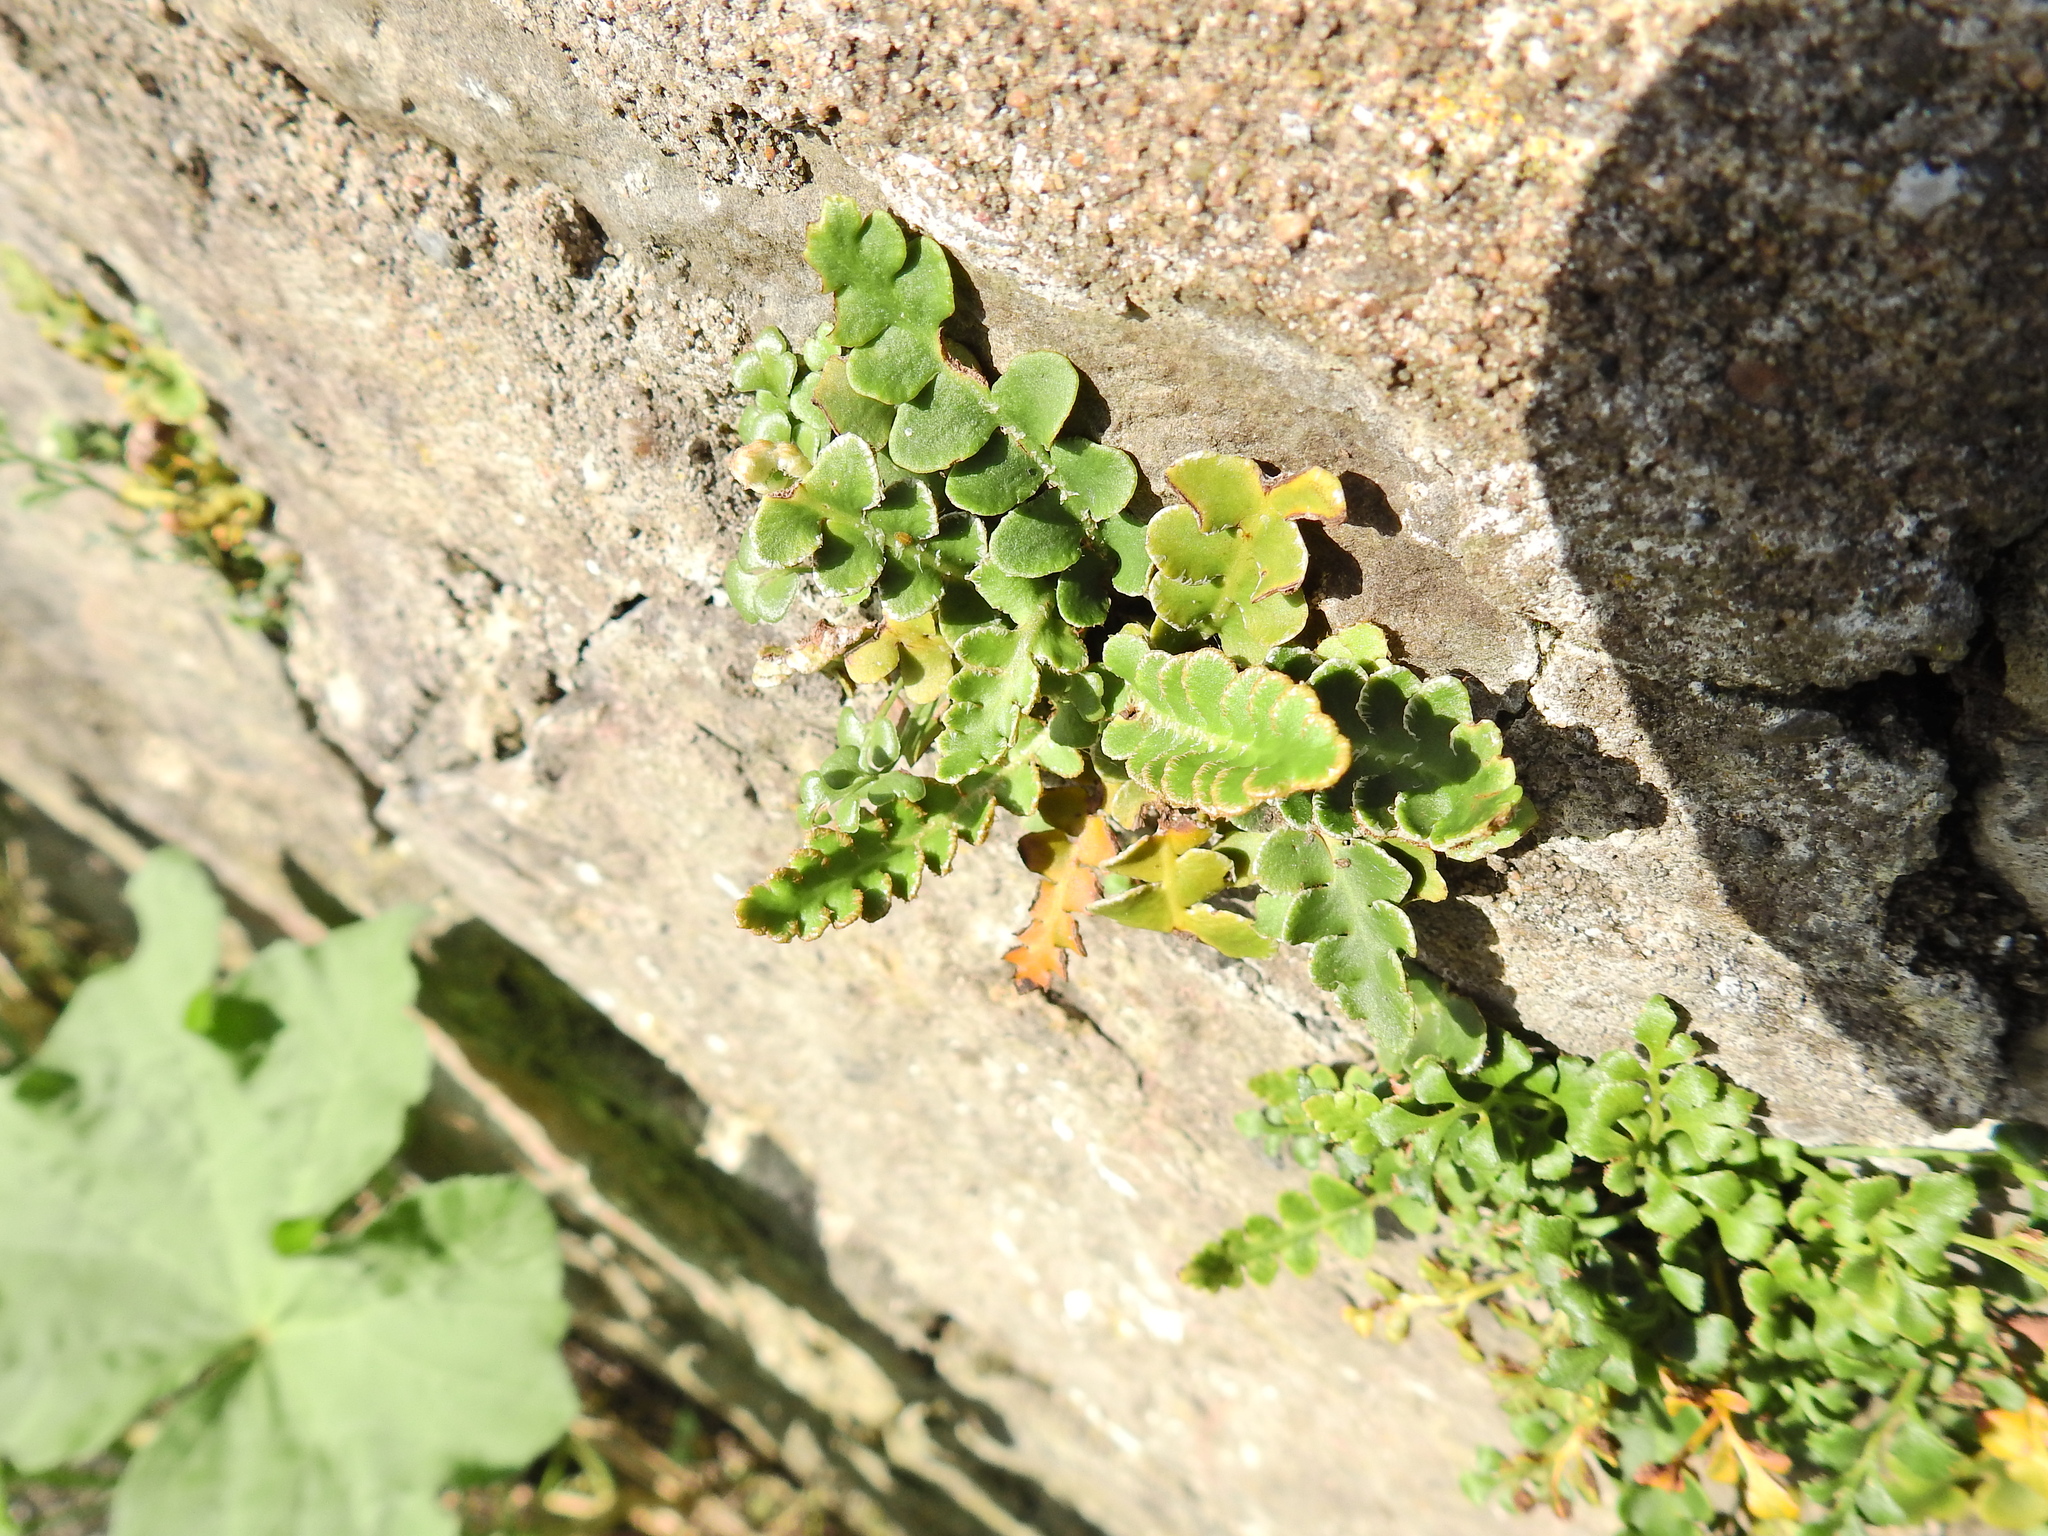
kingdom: Plantae
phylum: Tracheophyta
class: Polypodiopsida
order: Polypodiales
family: Aspleniaceae
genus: Asplenium
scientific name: Asplenium ceterach
